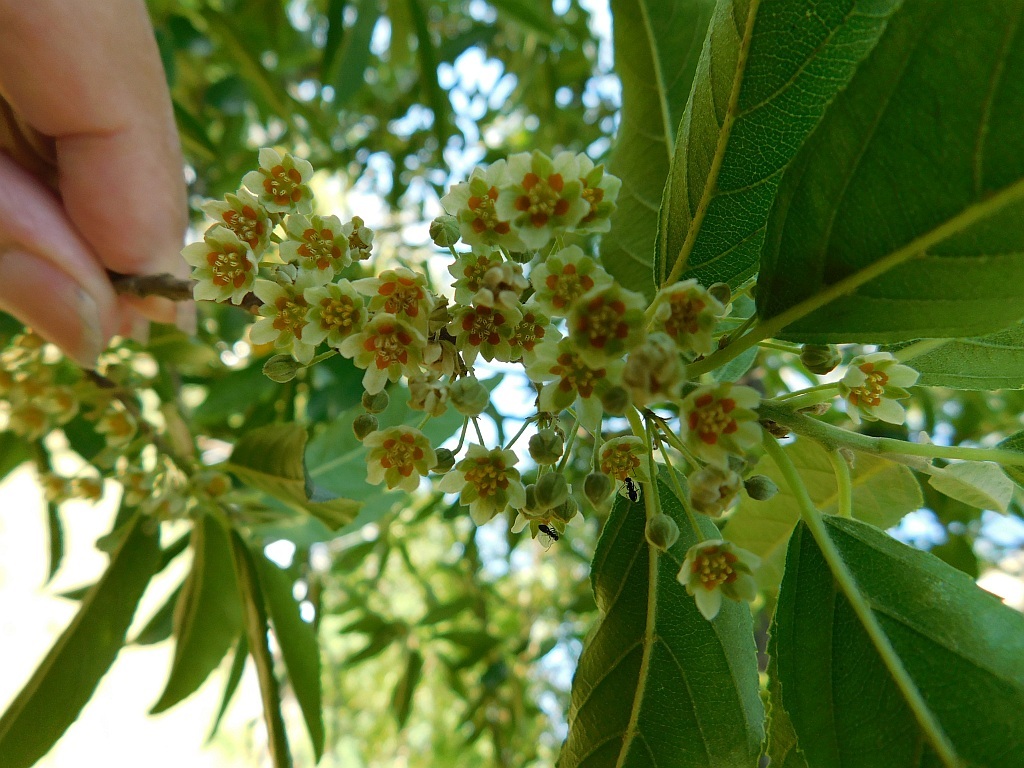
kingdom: Plantae
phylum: Tracheophyta
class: Magnoliopsida
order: Malpighiales
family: Achariaceae
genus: Kiggelaria
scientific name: Kiggelaria africana
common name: Wild peach
